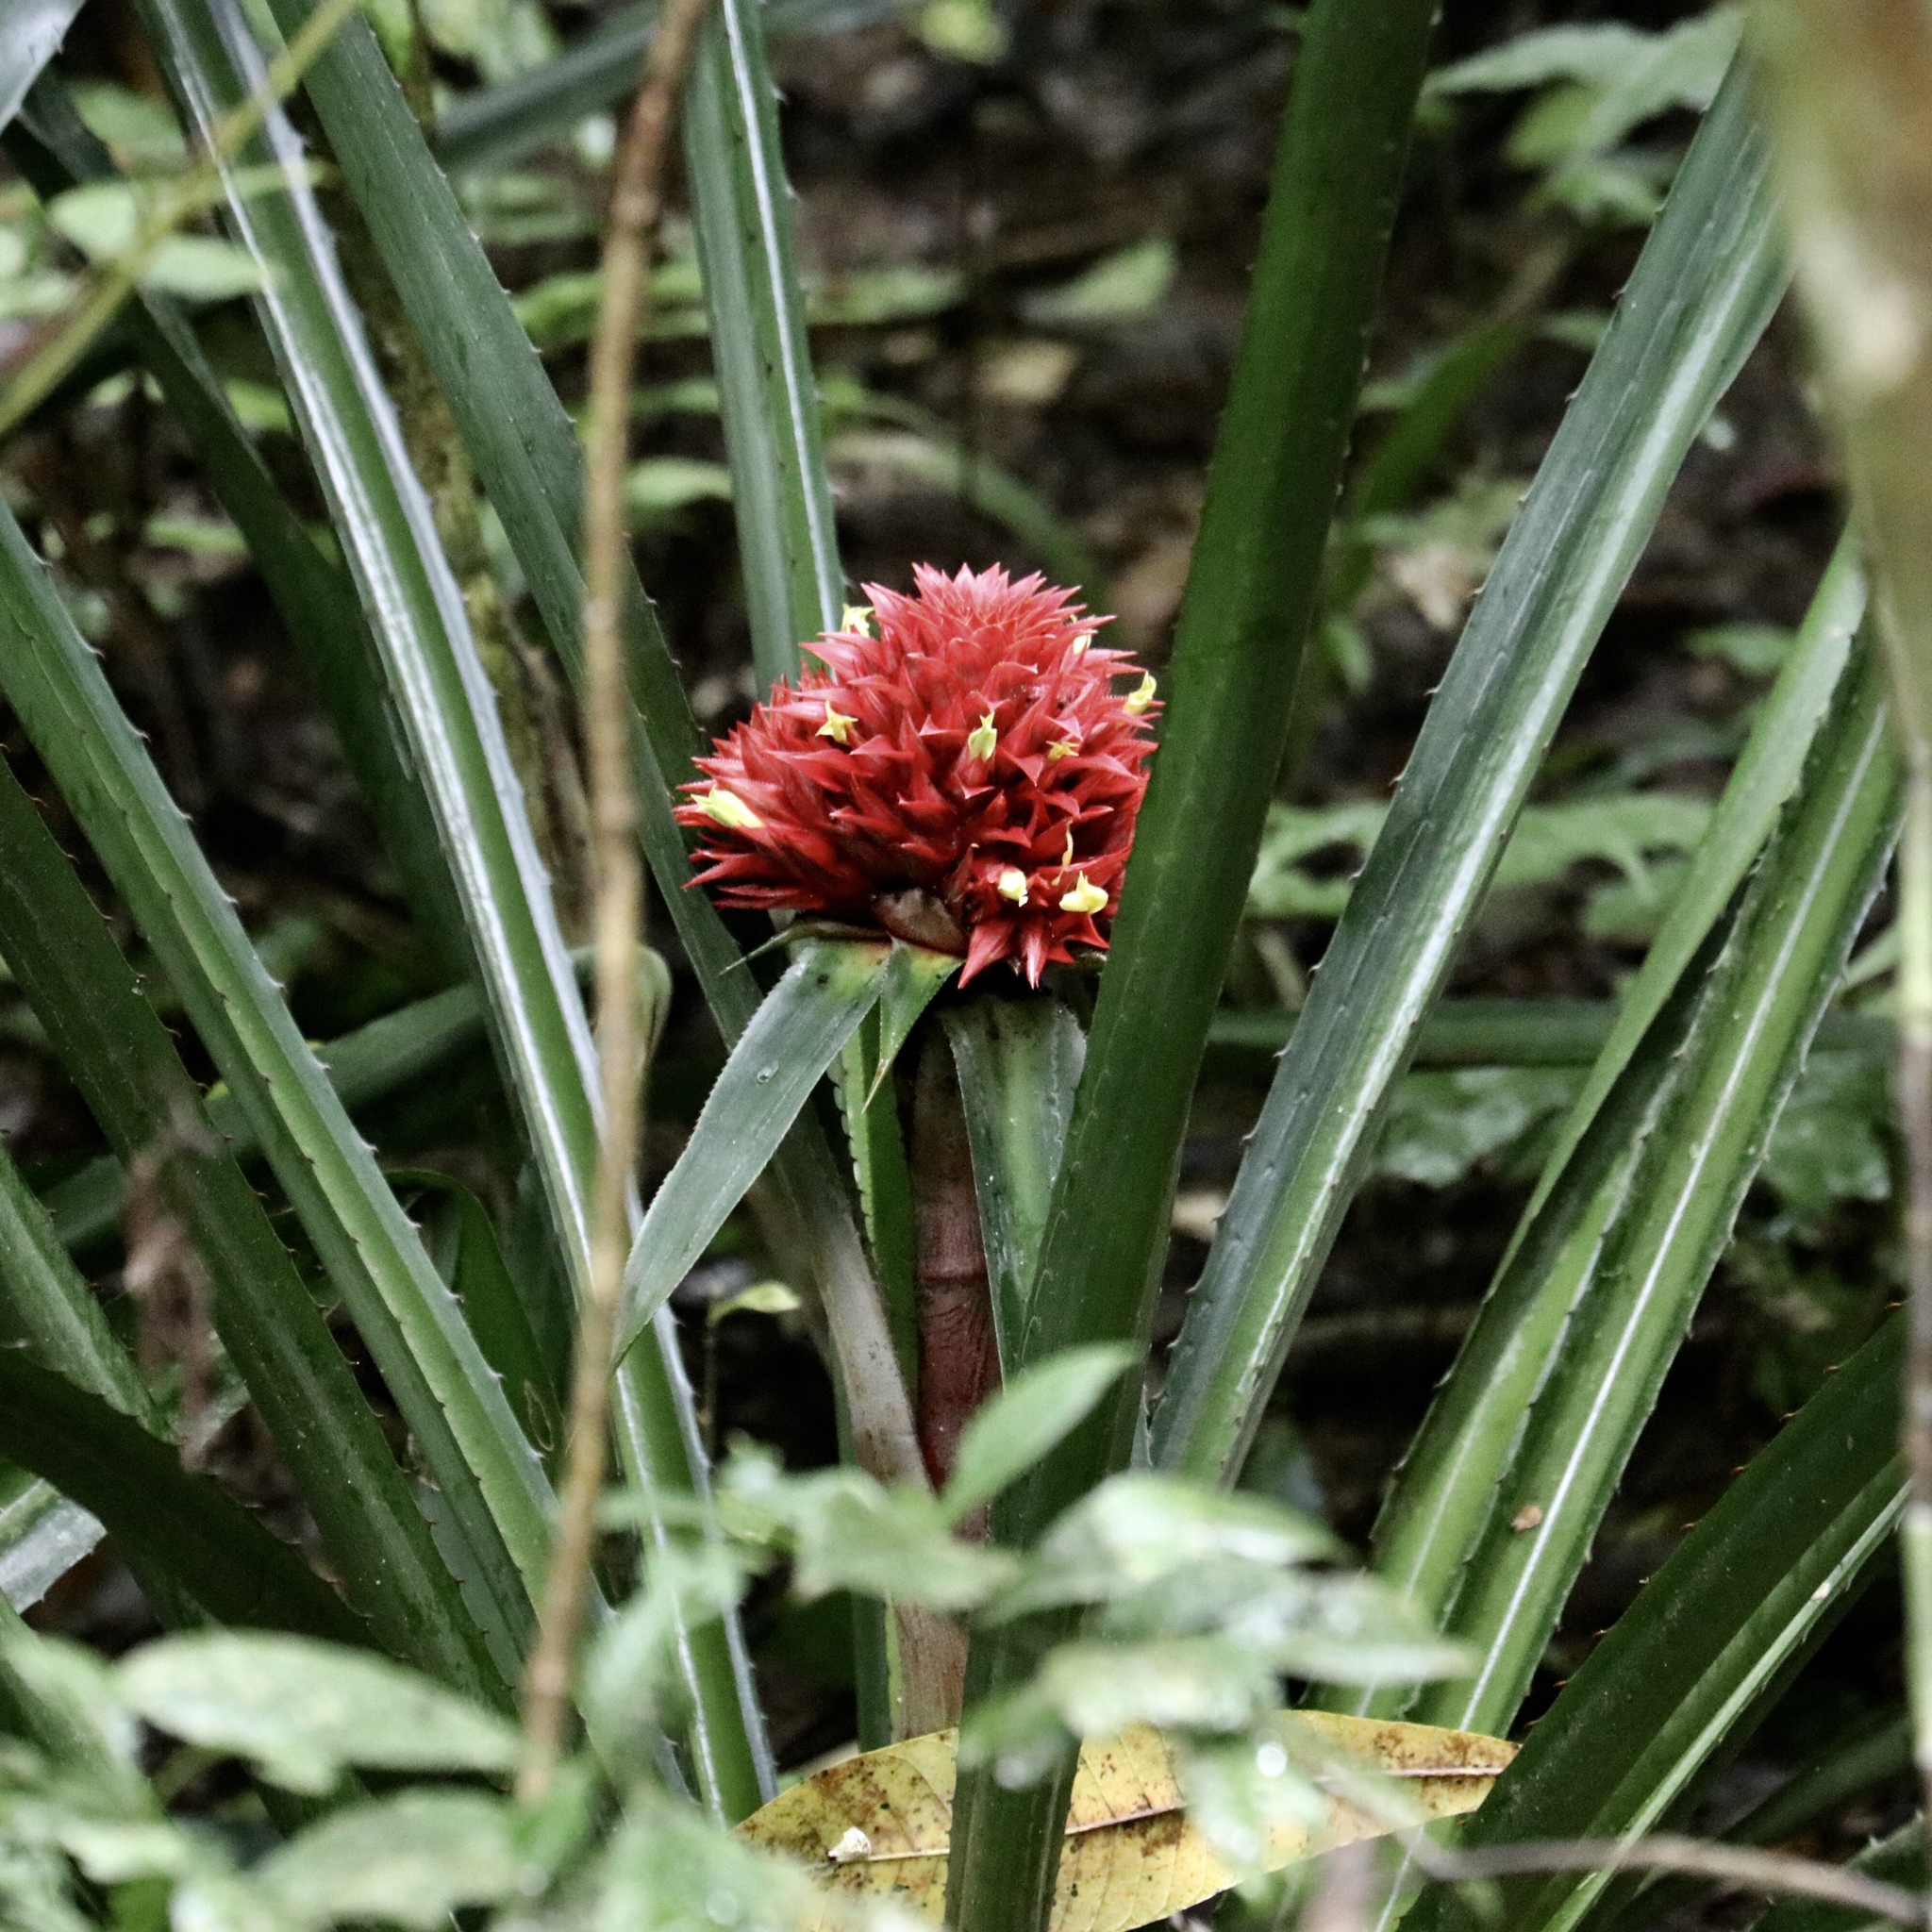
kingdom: Plantae
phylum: Tracheophyta
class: Liliopsida
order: Poales
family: Bromeliaceae
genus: Aechmea
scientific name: Aechmea magdalenae
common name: Arghan
